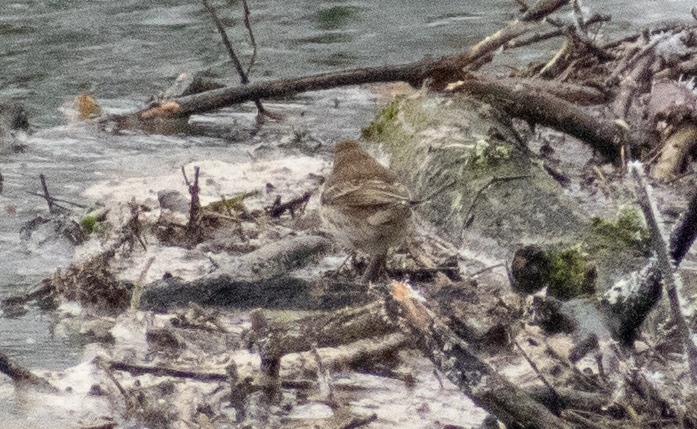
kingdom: Animalia
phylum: Chordata
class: Aves
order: Passeriformes
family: Motacillidae
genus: Anthus
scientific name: Anthus spinoletta
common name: Water pipit
